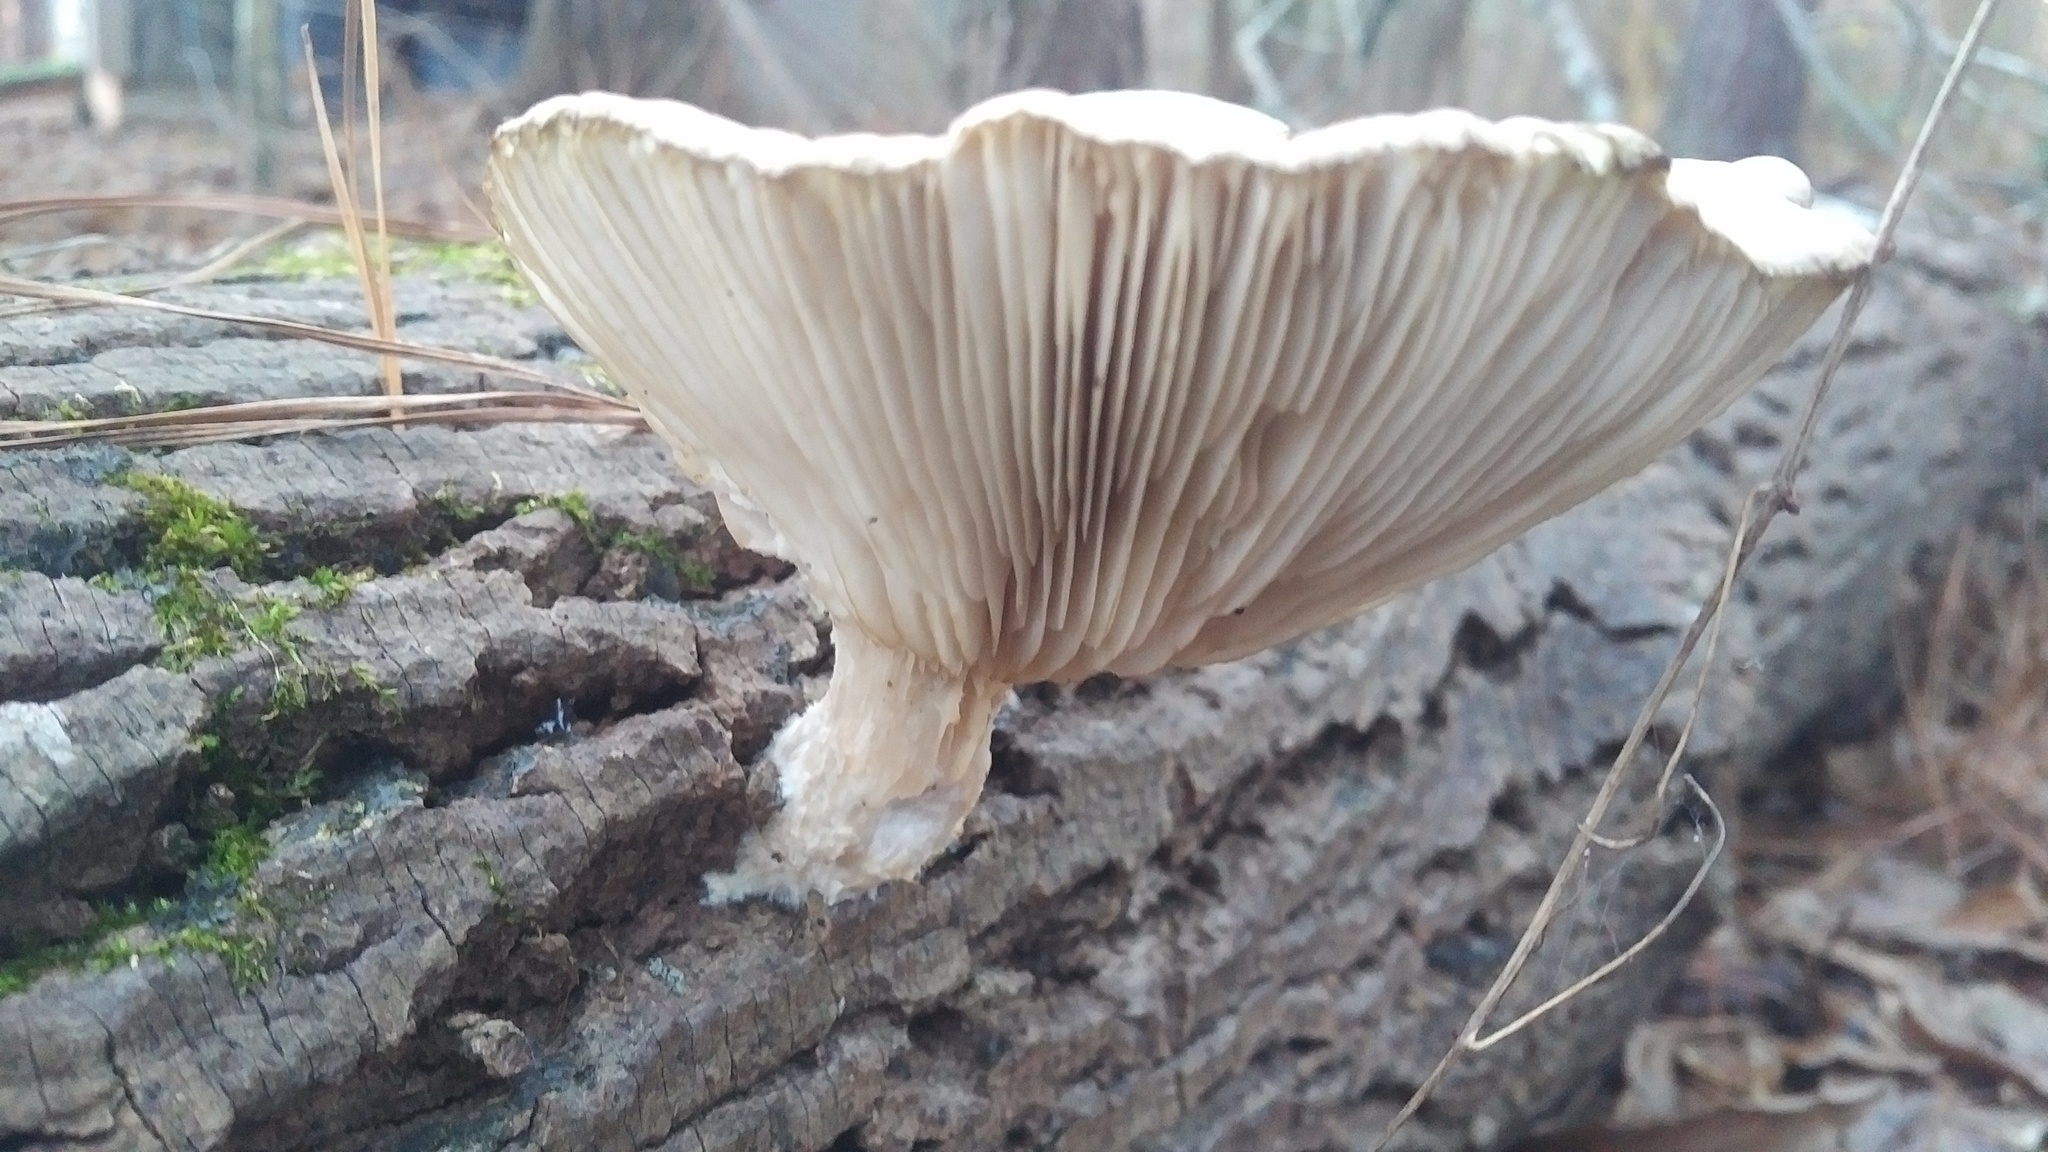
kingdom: Fungi
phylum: Basidiomycota
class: Agaricomycetes
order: Agaricales
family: Pleurotaceae
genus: Pleurotus
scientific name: Pleurotus ostreatus
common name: Oyster mushroom
